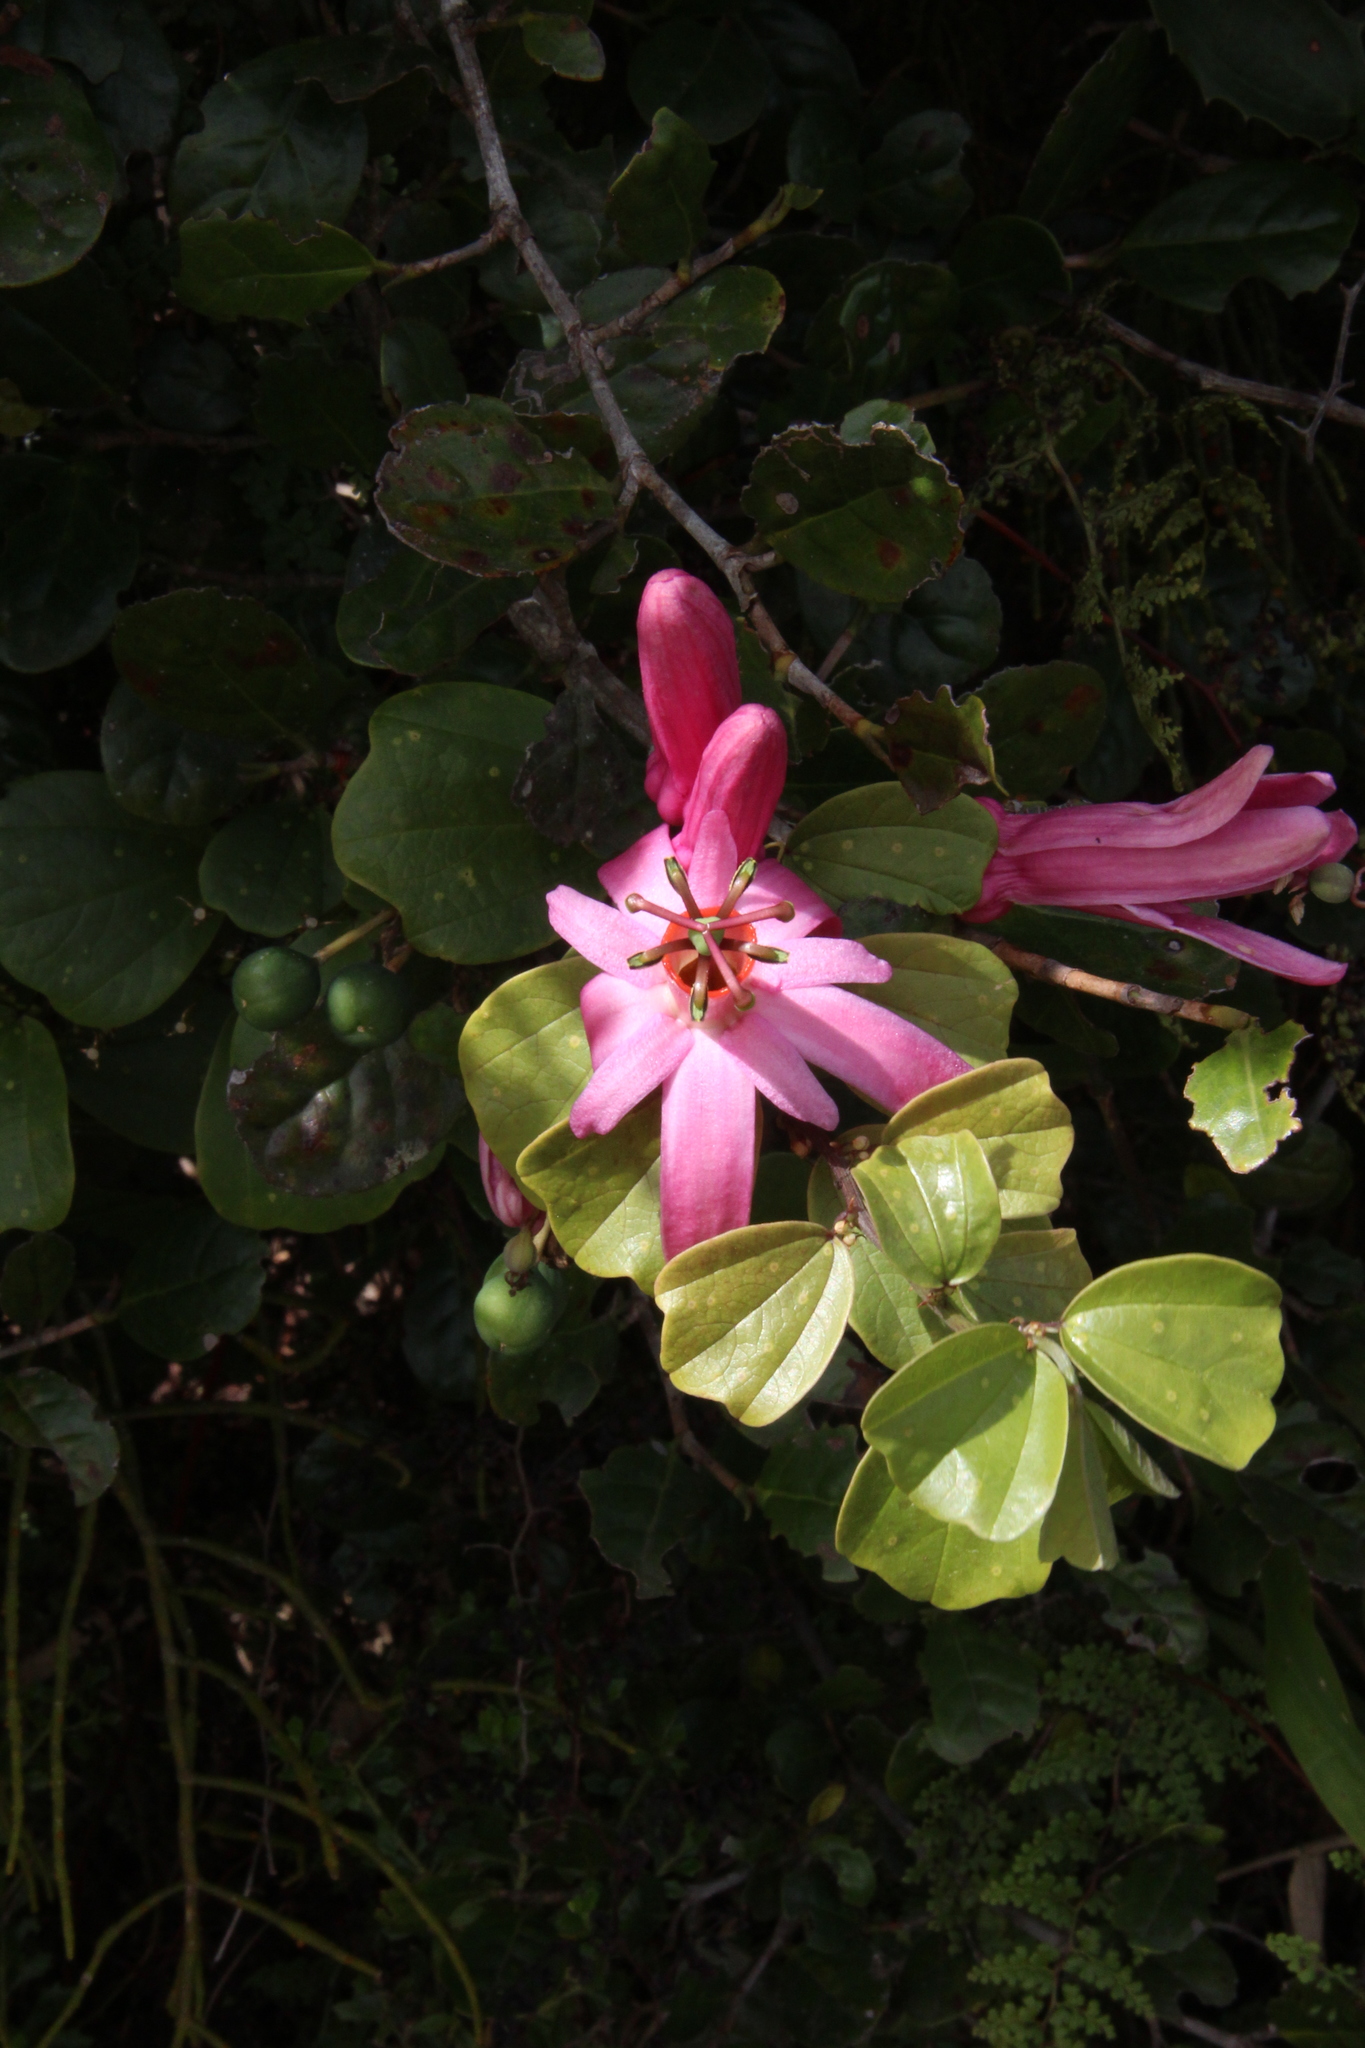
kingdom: Plantae
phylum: Tracheophyta
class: Magnoliopsida
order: Malpighiales
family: Passifloraceae
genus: Passiflora
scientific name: Passiflora orbiculata
